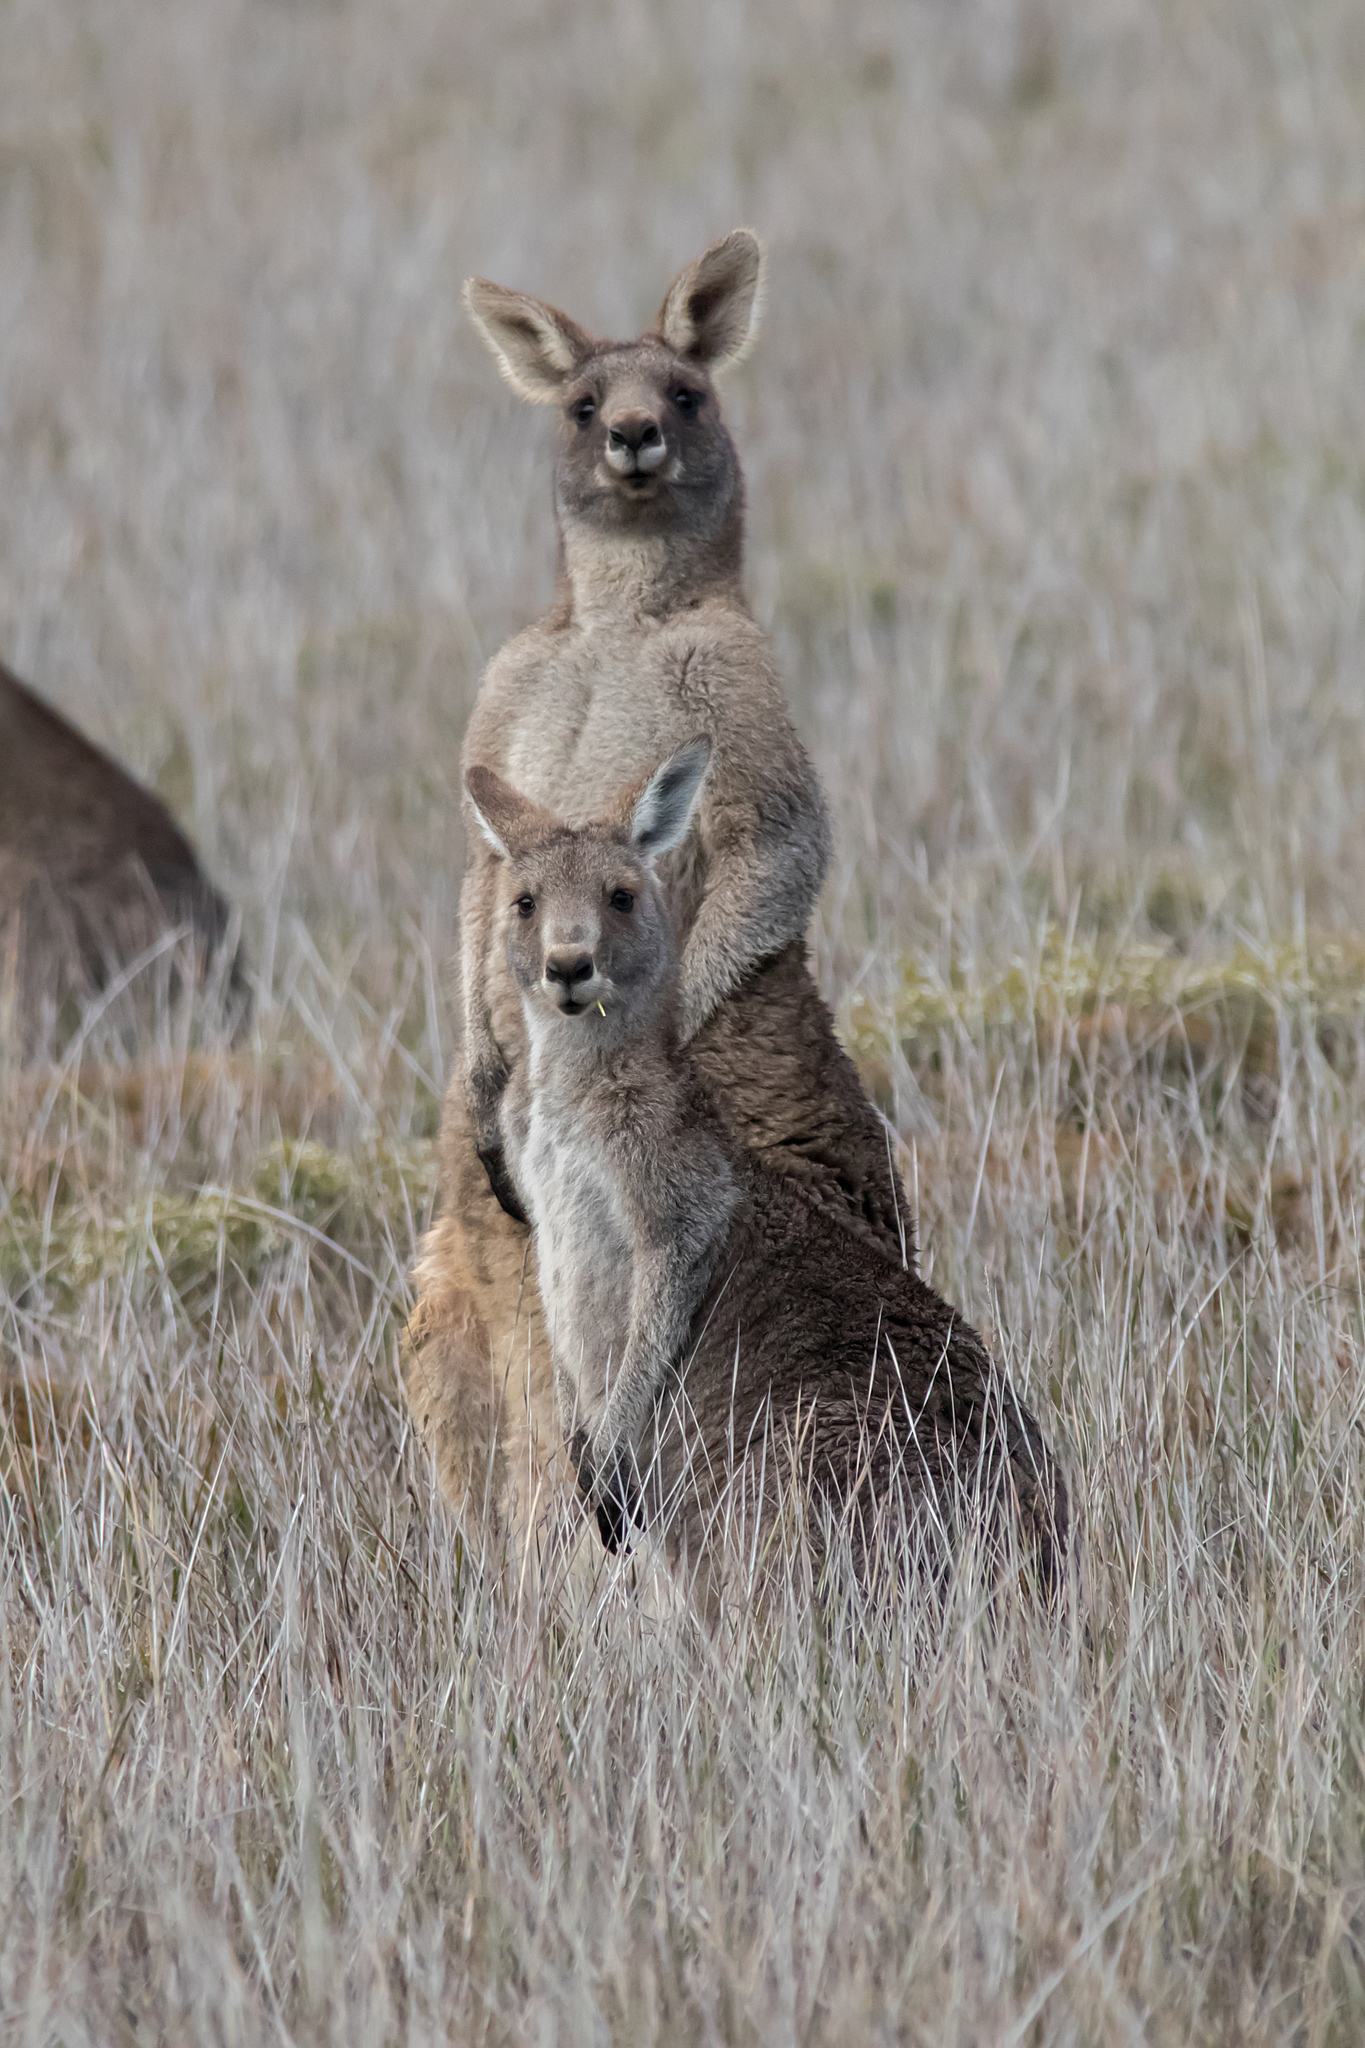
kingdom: Animalia
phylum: Chordata
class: Mammalia
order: Diprotodontia
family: Macropodidae
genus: Macropus
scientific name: Macropus giganteus
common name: Eastern grey kangaroo
